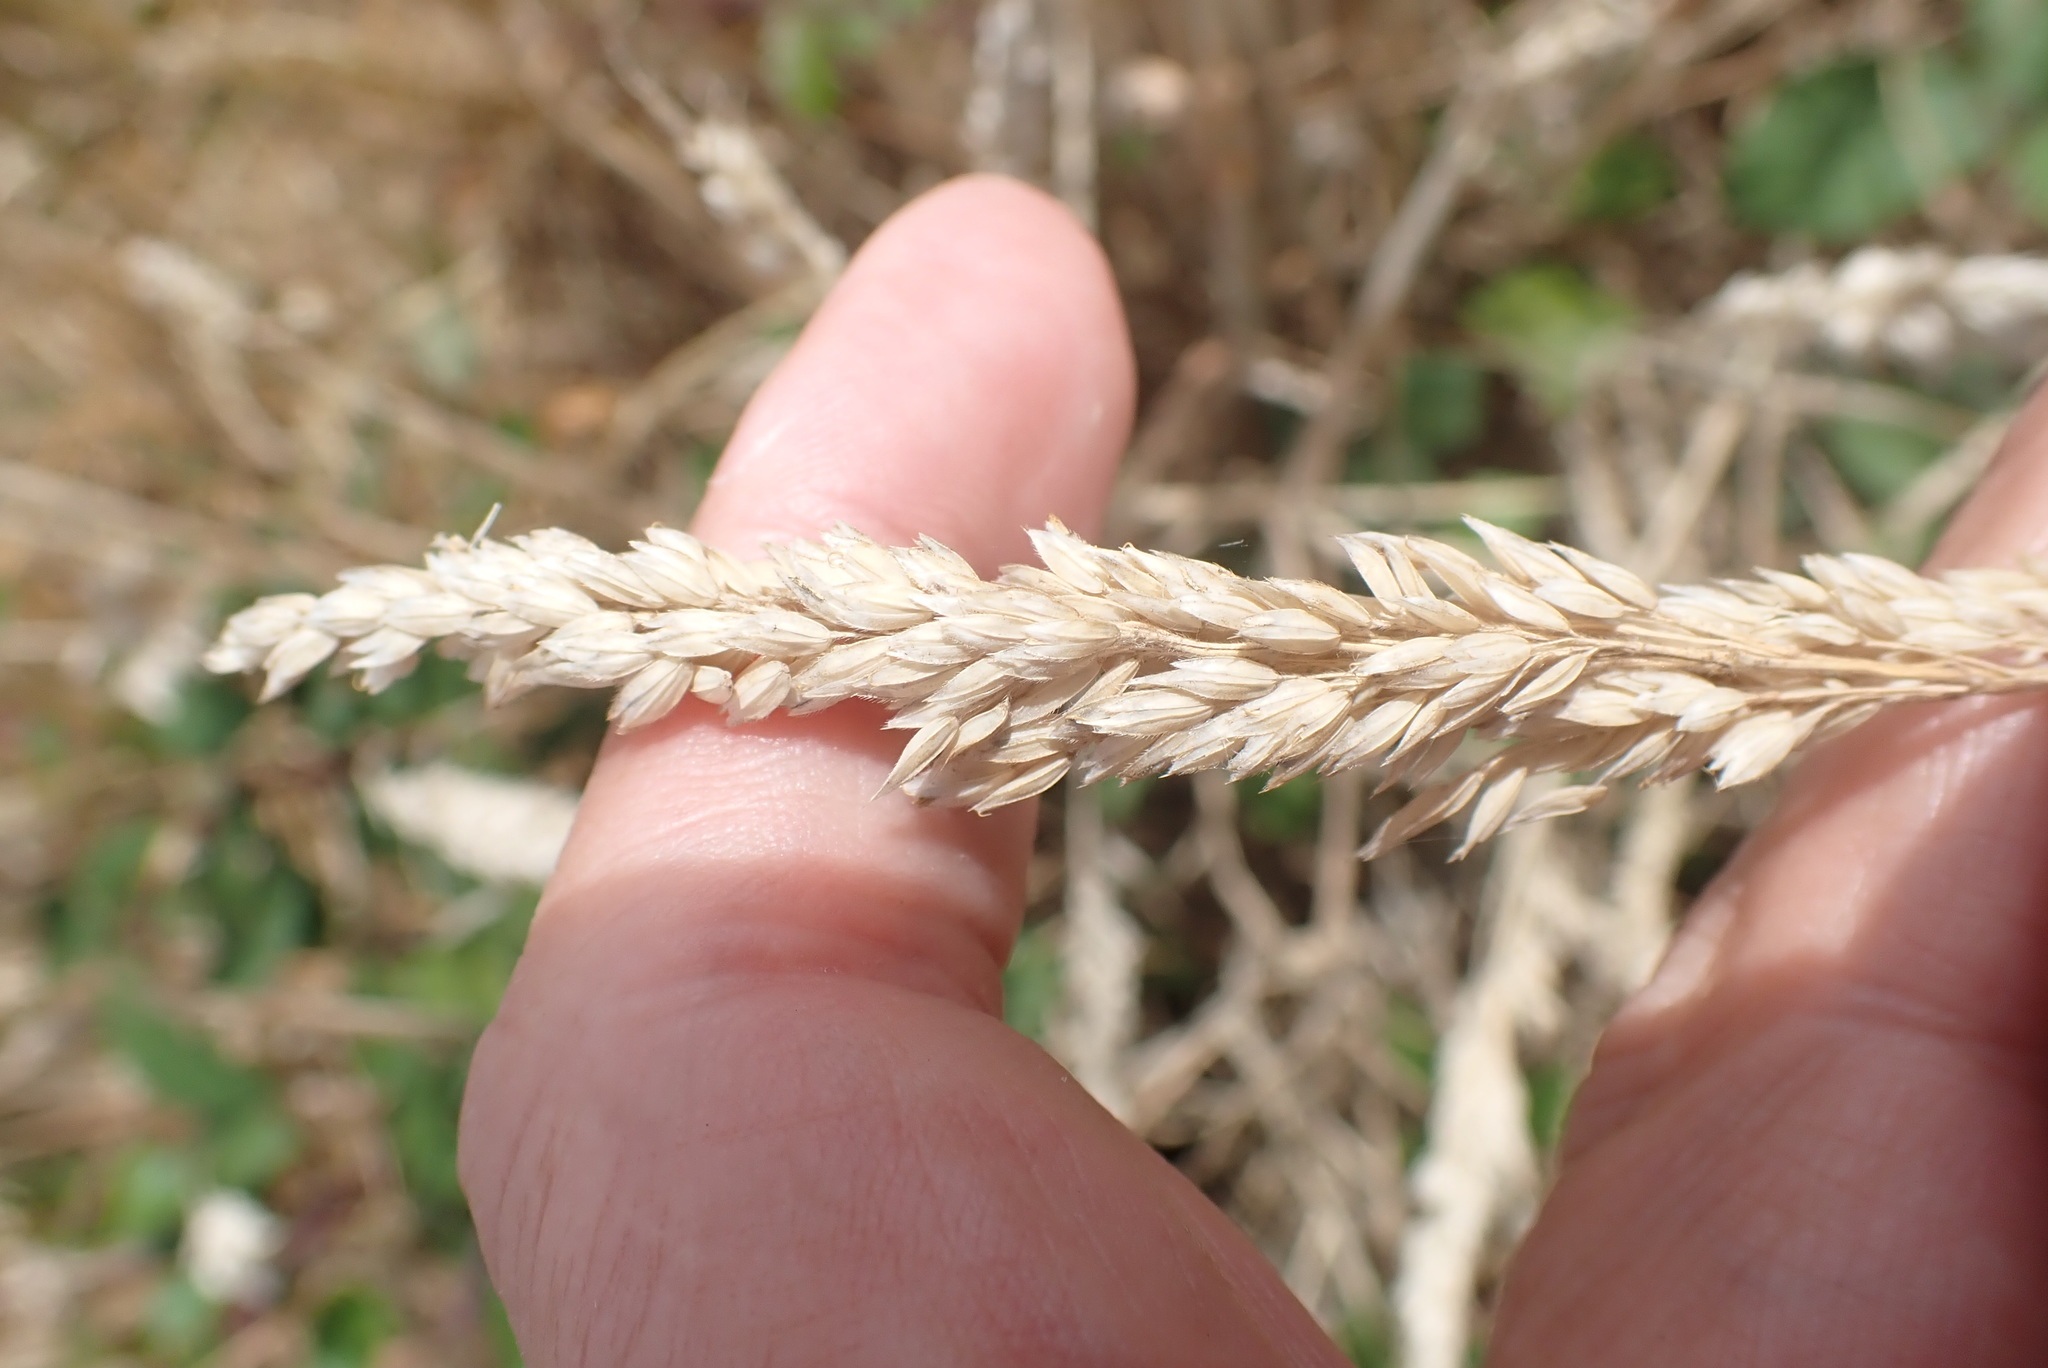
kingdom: Plantae
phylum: Tracheophyta
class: Liliopsida
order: Poales
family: Poaceae
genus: Holcus
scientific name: Holcus lanatus
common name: Yorkshire-fog
